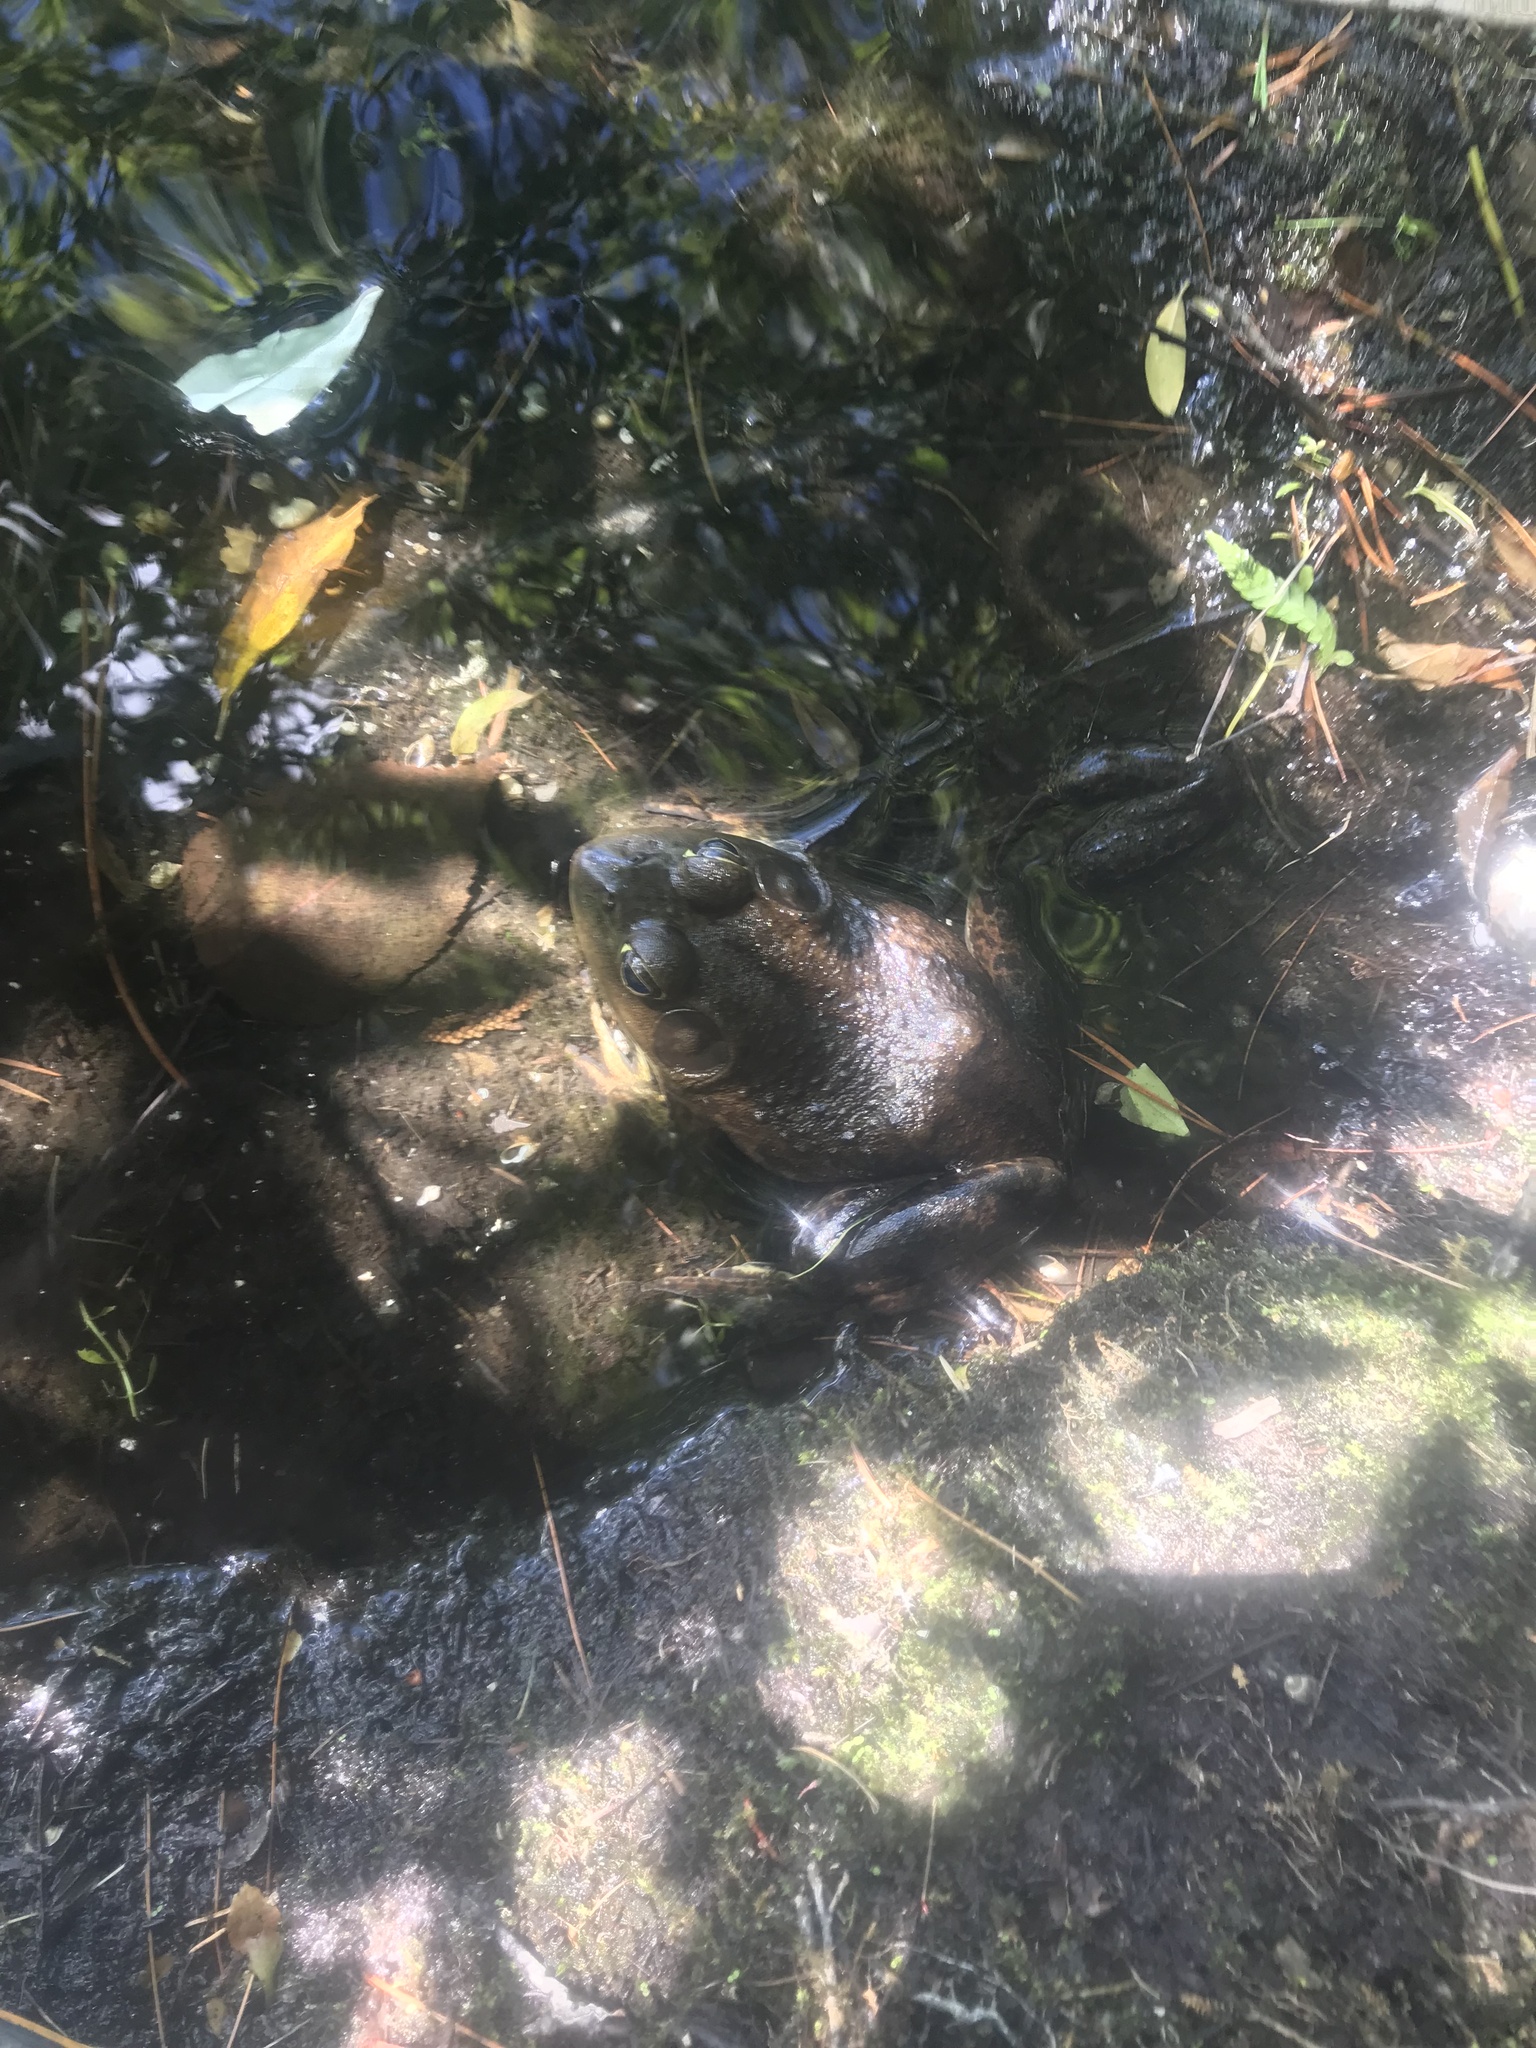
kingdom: Animalia
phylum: Chordata
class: Amphibia
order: Anura
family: Ranidae
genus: Lithobates
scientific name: Lithobates catesbeianus
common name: American bullfrog
